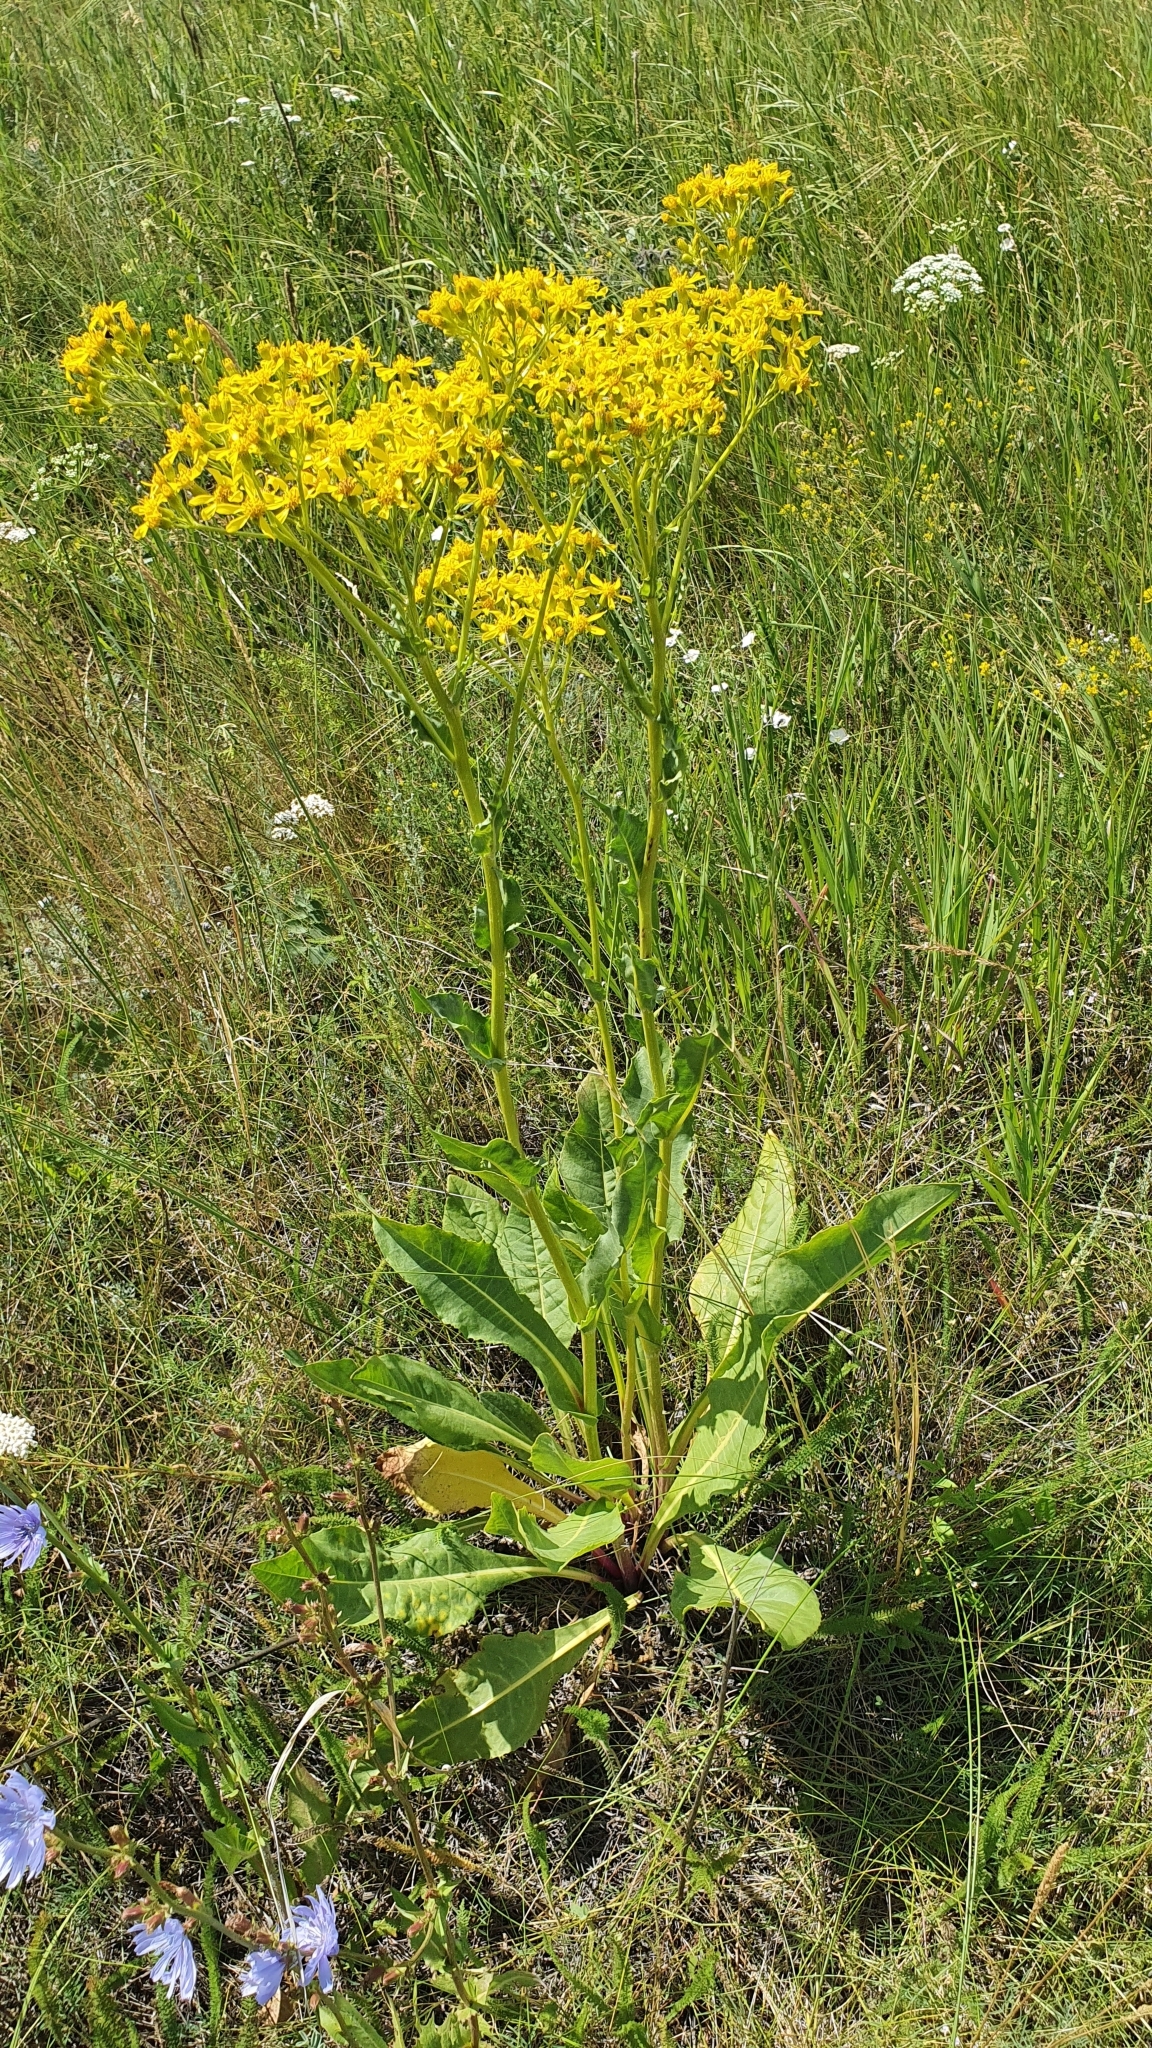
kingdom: Plantae
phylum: Tracheophyta
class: Magnoliopsida
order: Asterales
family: Asteraceae
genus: Senecio
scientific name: Senecio doria
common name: Golden ragwort
